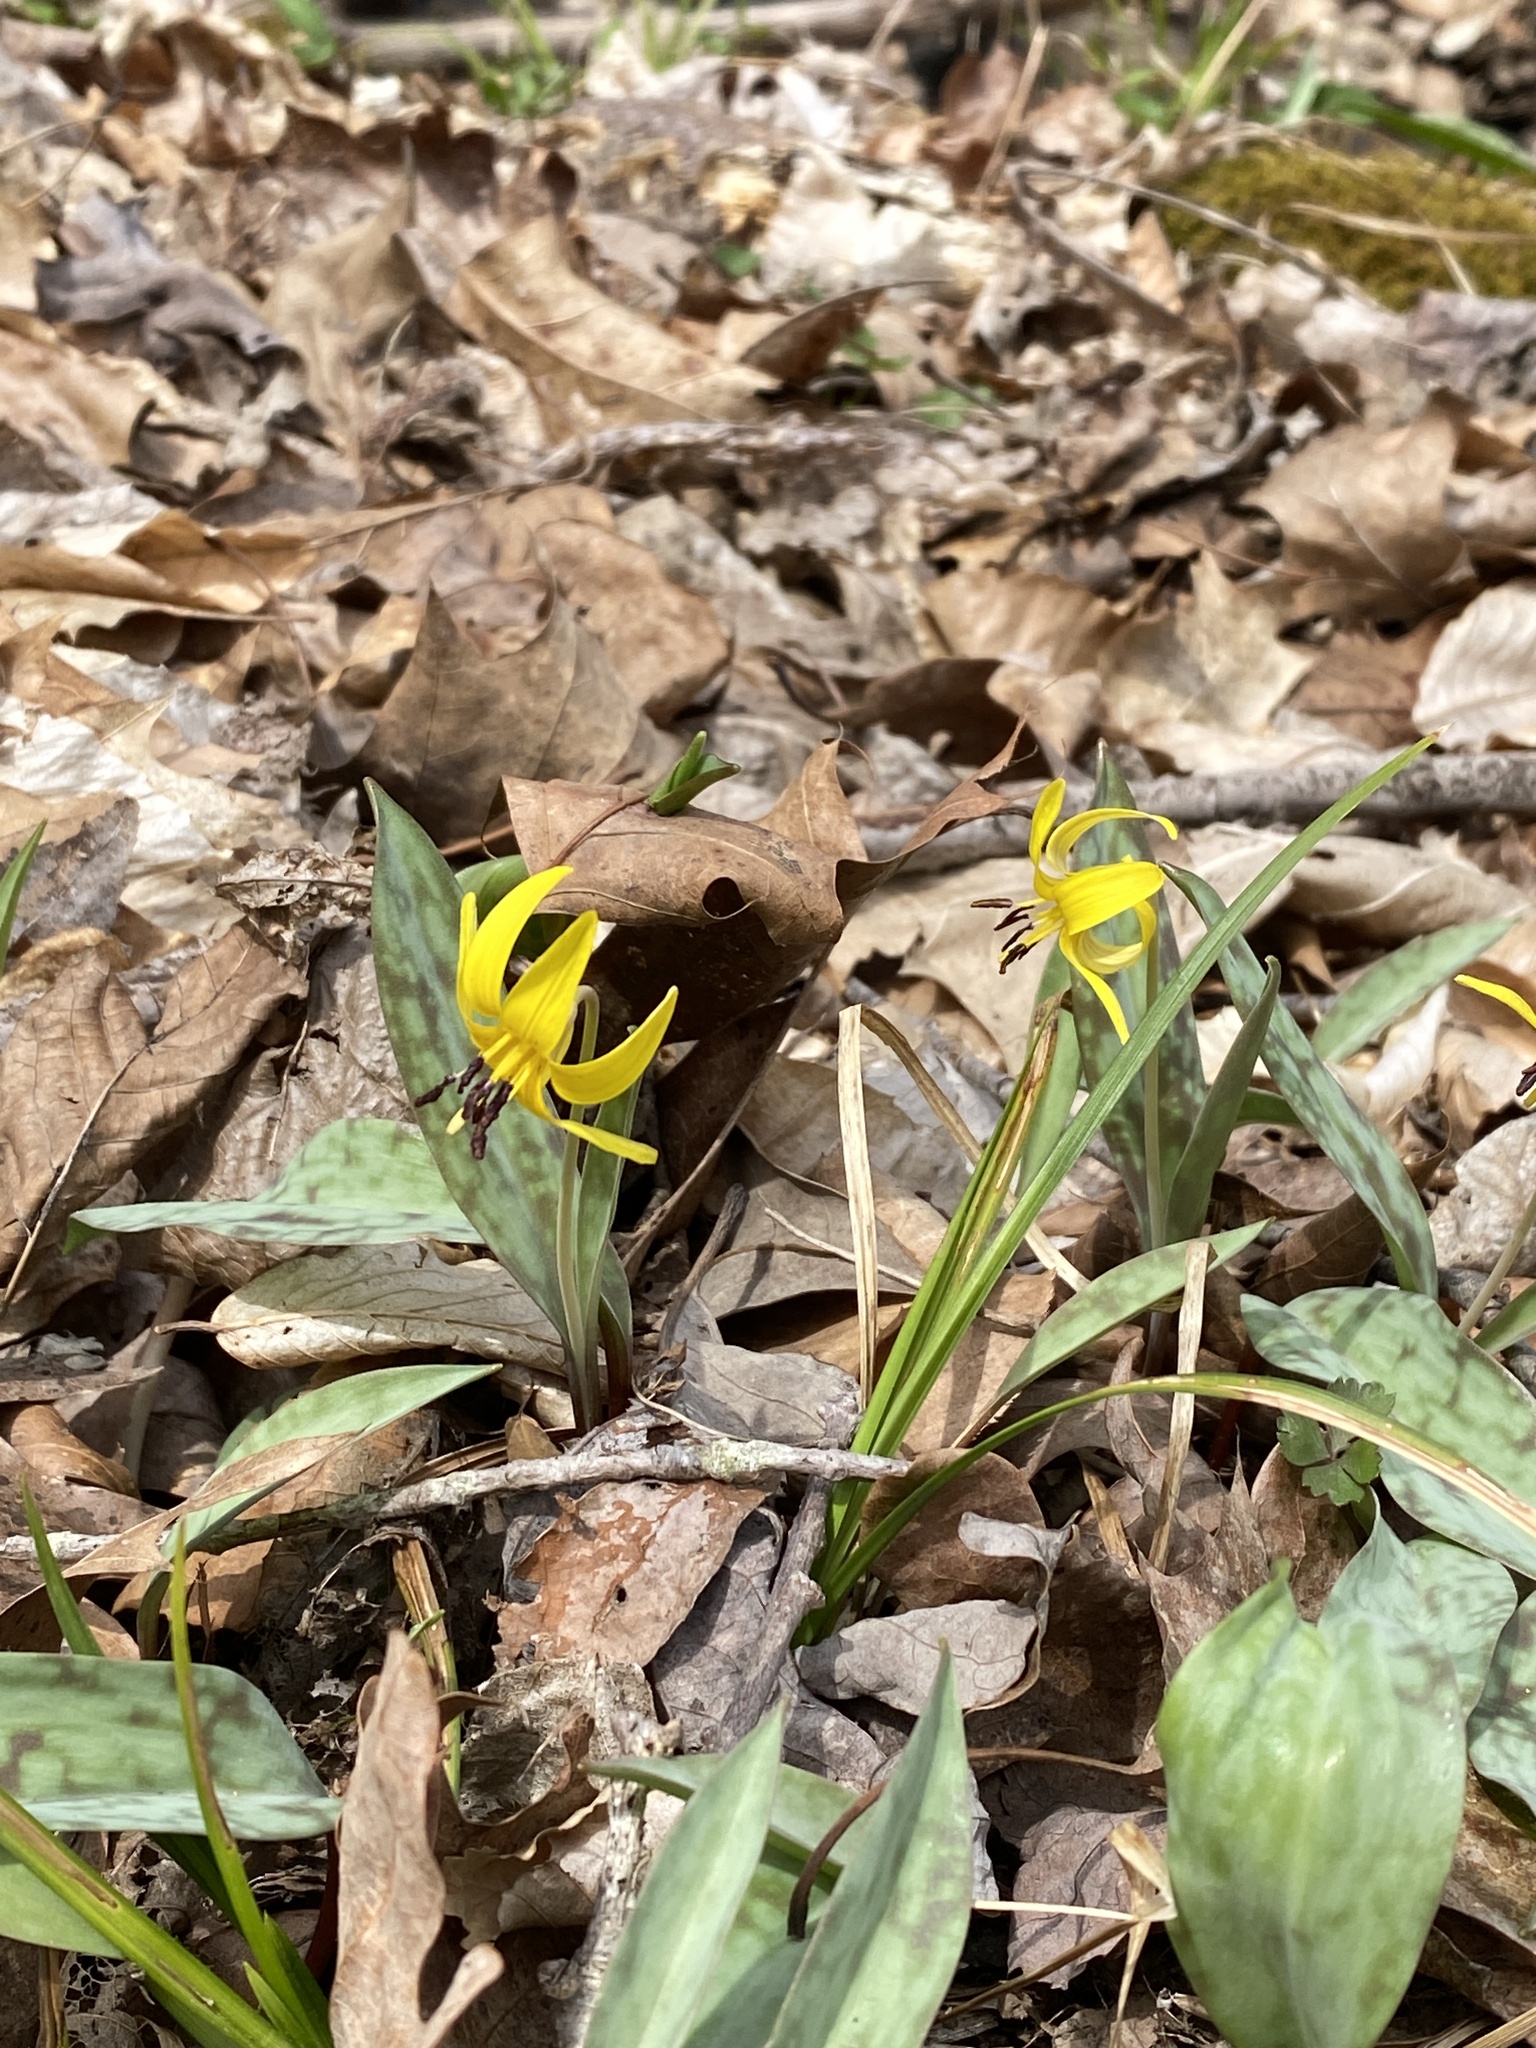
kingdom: Plantae
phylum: Tracheophyta
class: Liliopsida
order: Liliales
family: Liliaceae
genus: Erythronium
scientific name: Erythronium americanum
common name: Yellow adder's-tongue
